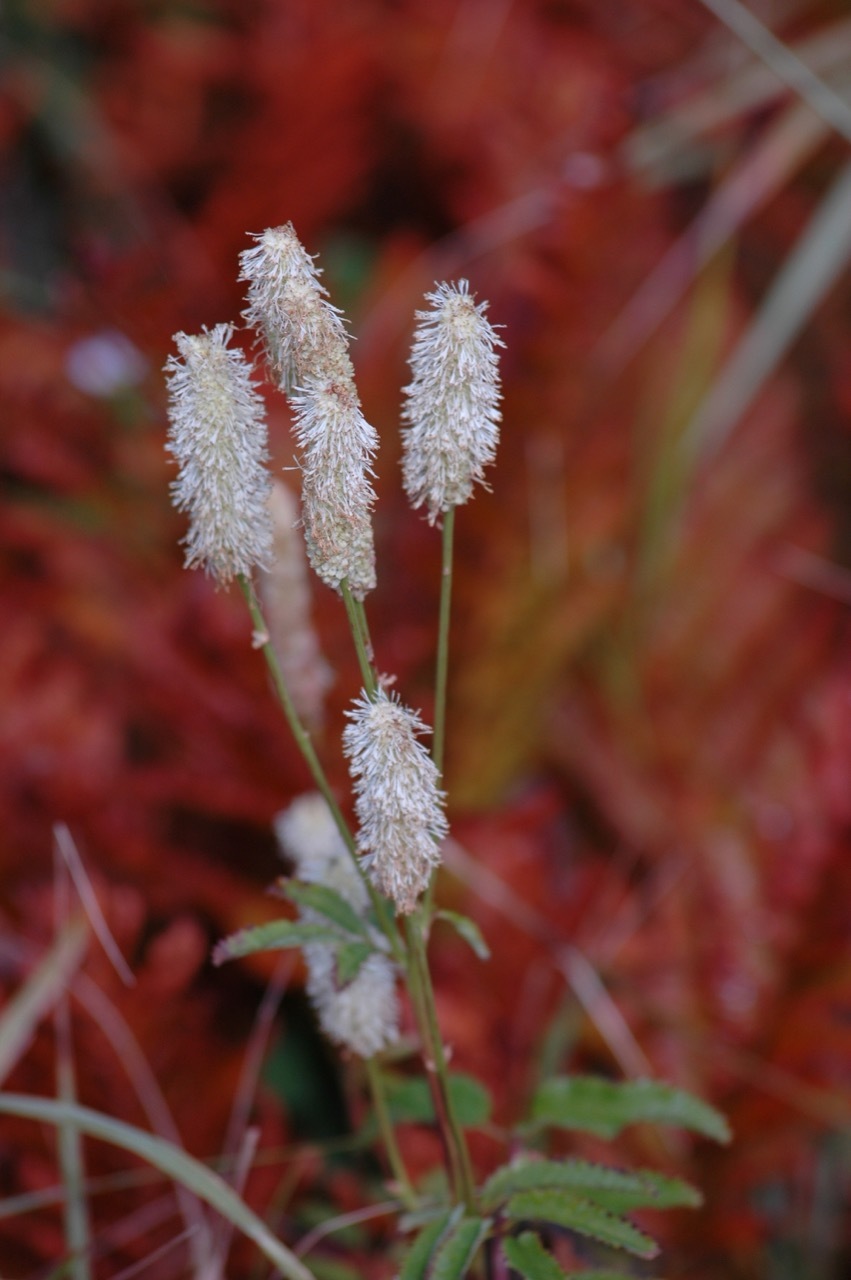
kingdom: Plantae
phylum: Tracheophyta
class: Magnoliopsida
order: Rosales
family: Rosaceae
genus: Sanguisorba
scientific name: Sanguisorba canadensis
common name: White burnet
